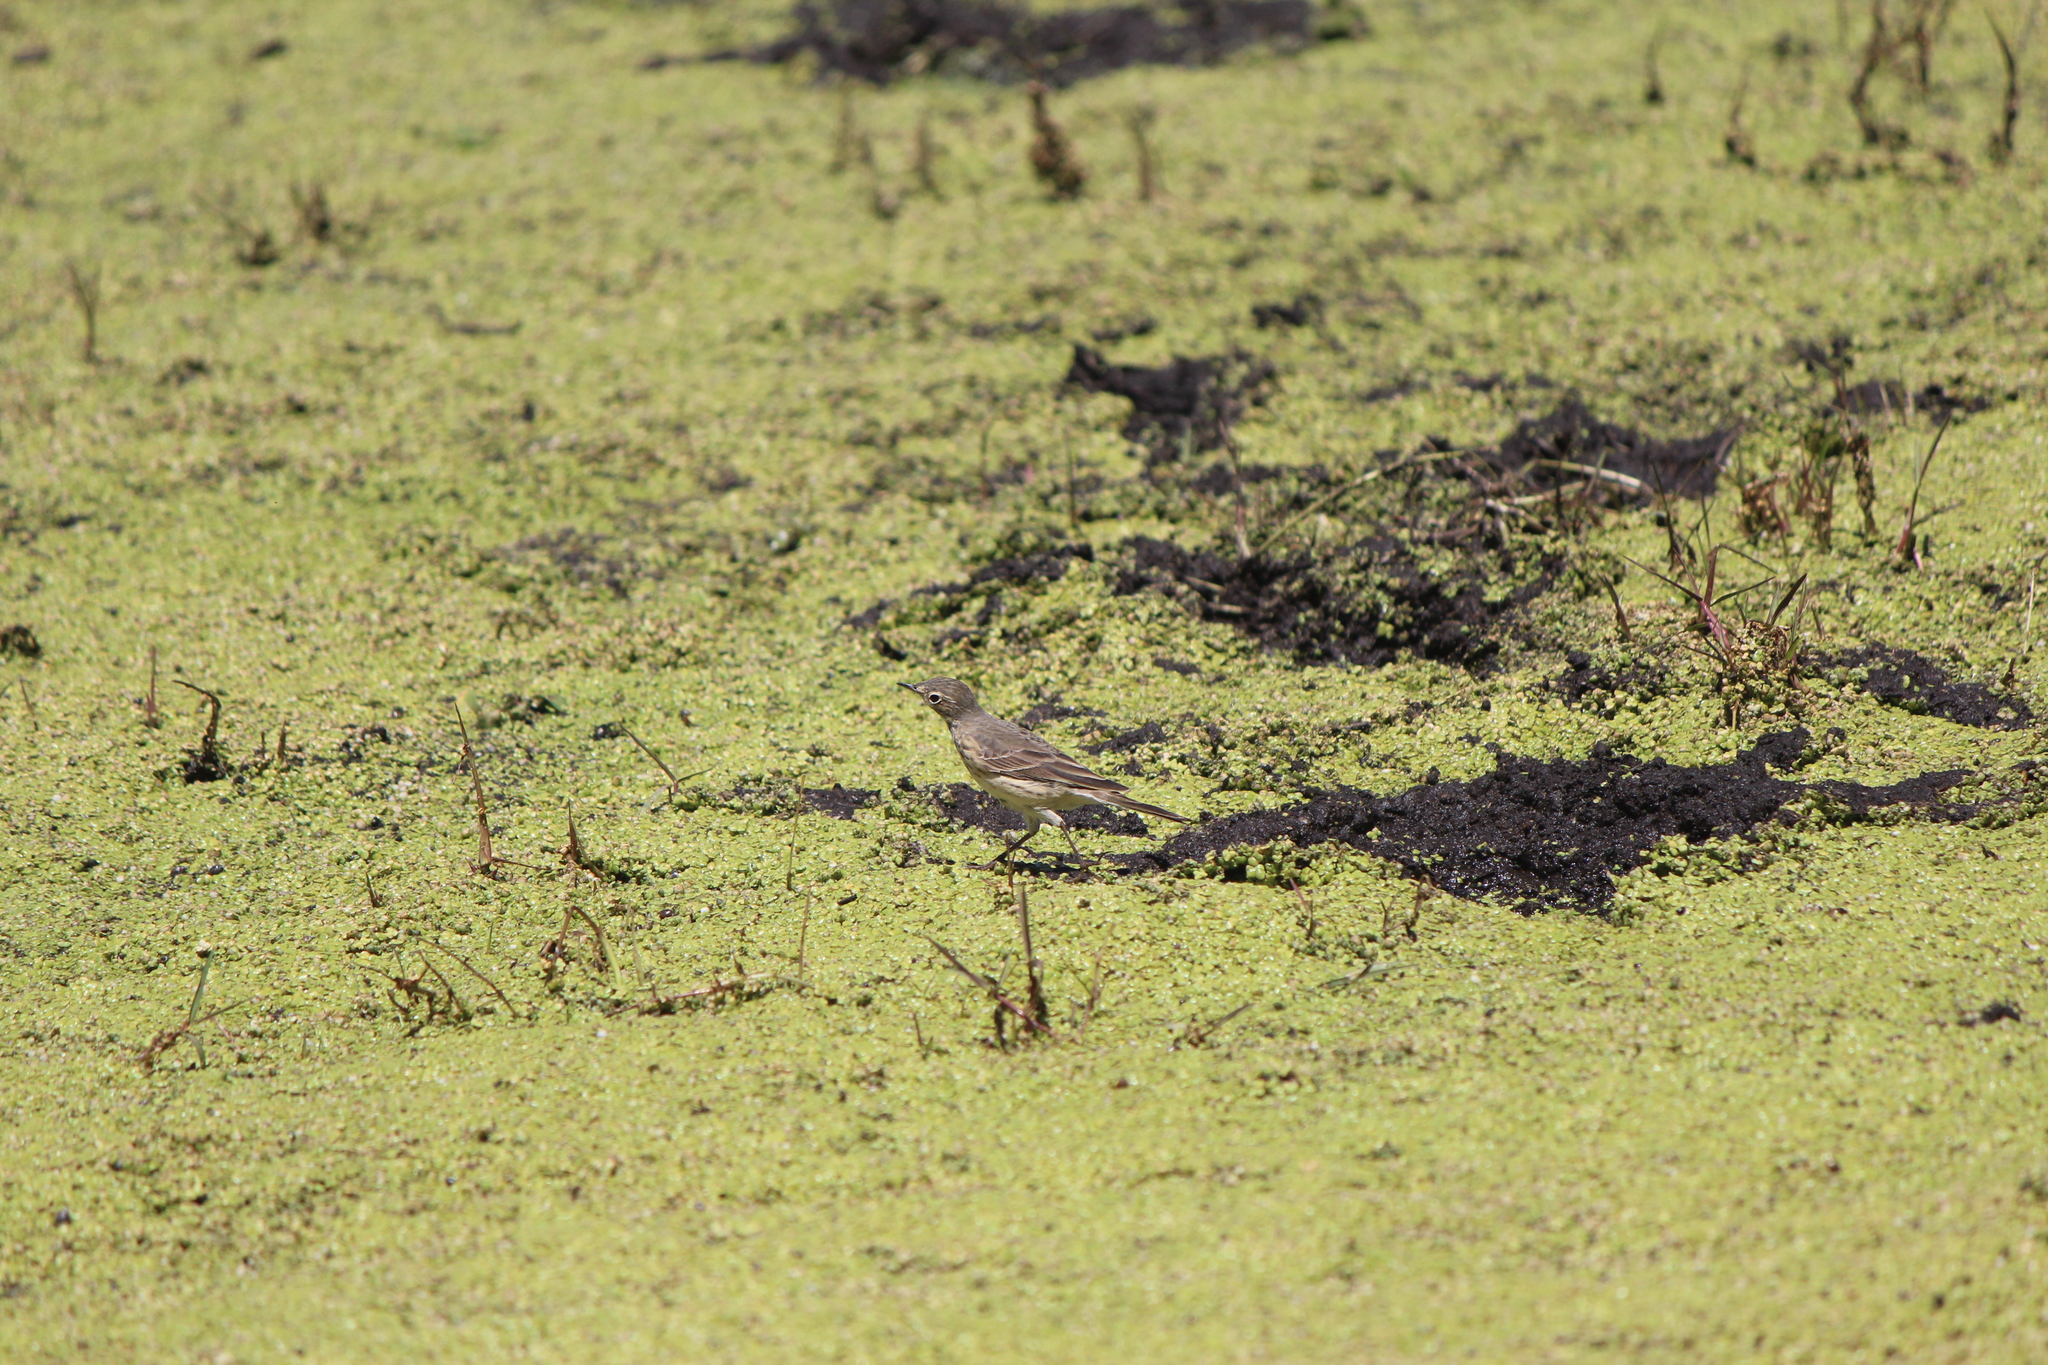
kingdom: Animalia
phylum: Chordata
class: Aves
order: Passeriformes
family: Motacillidae
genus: Anthus
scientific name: Anthus rubescens
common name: Buff-bellied pipit
